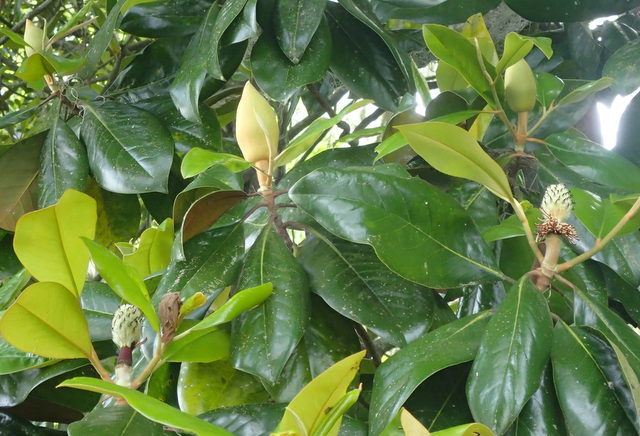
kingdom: Plantae
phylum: Tracheophyta
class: Magnoliopsida
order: Magnoliales
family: Magnoliaceae
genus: Magnolia
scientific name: Magnolia grandiflora
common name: Southern magnolia
